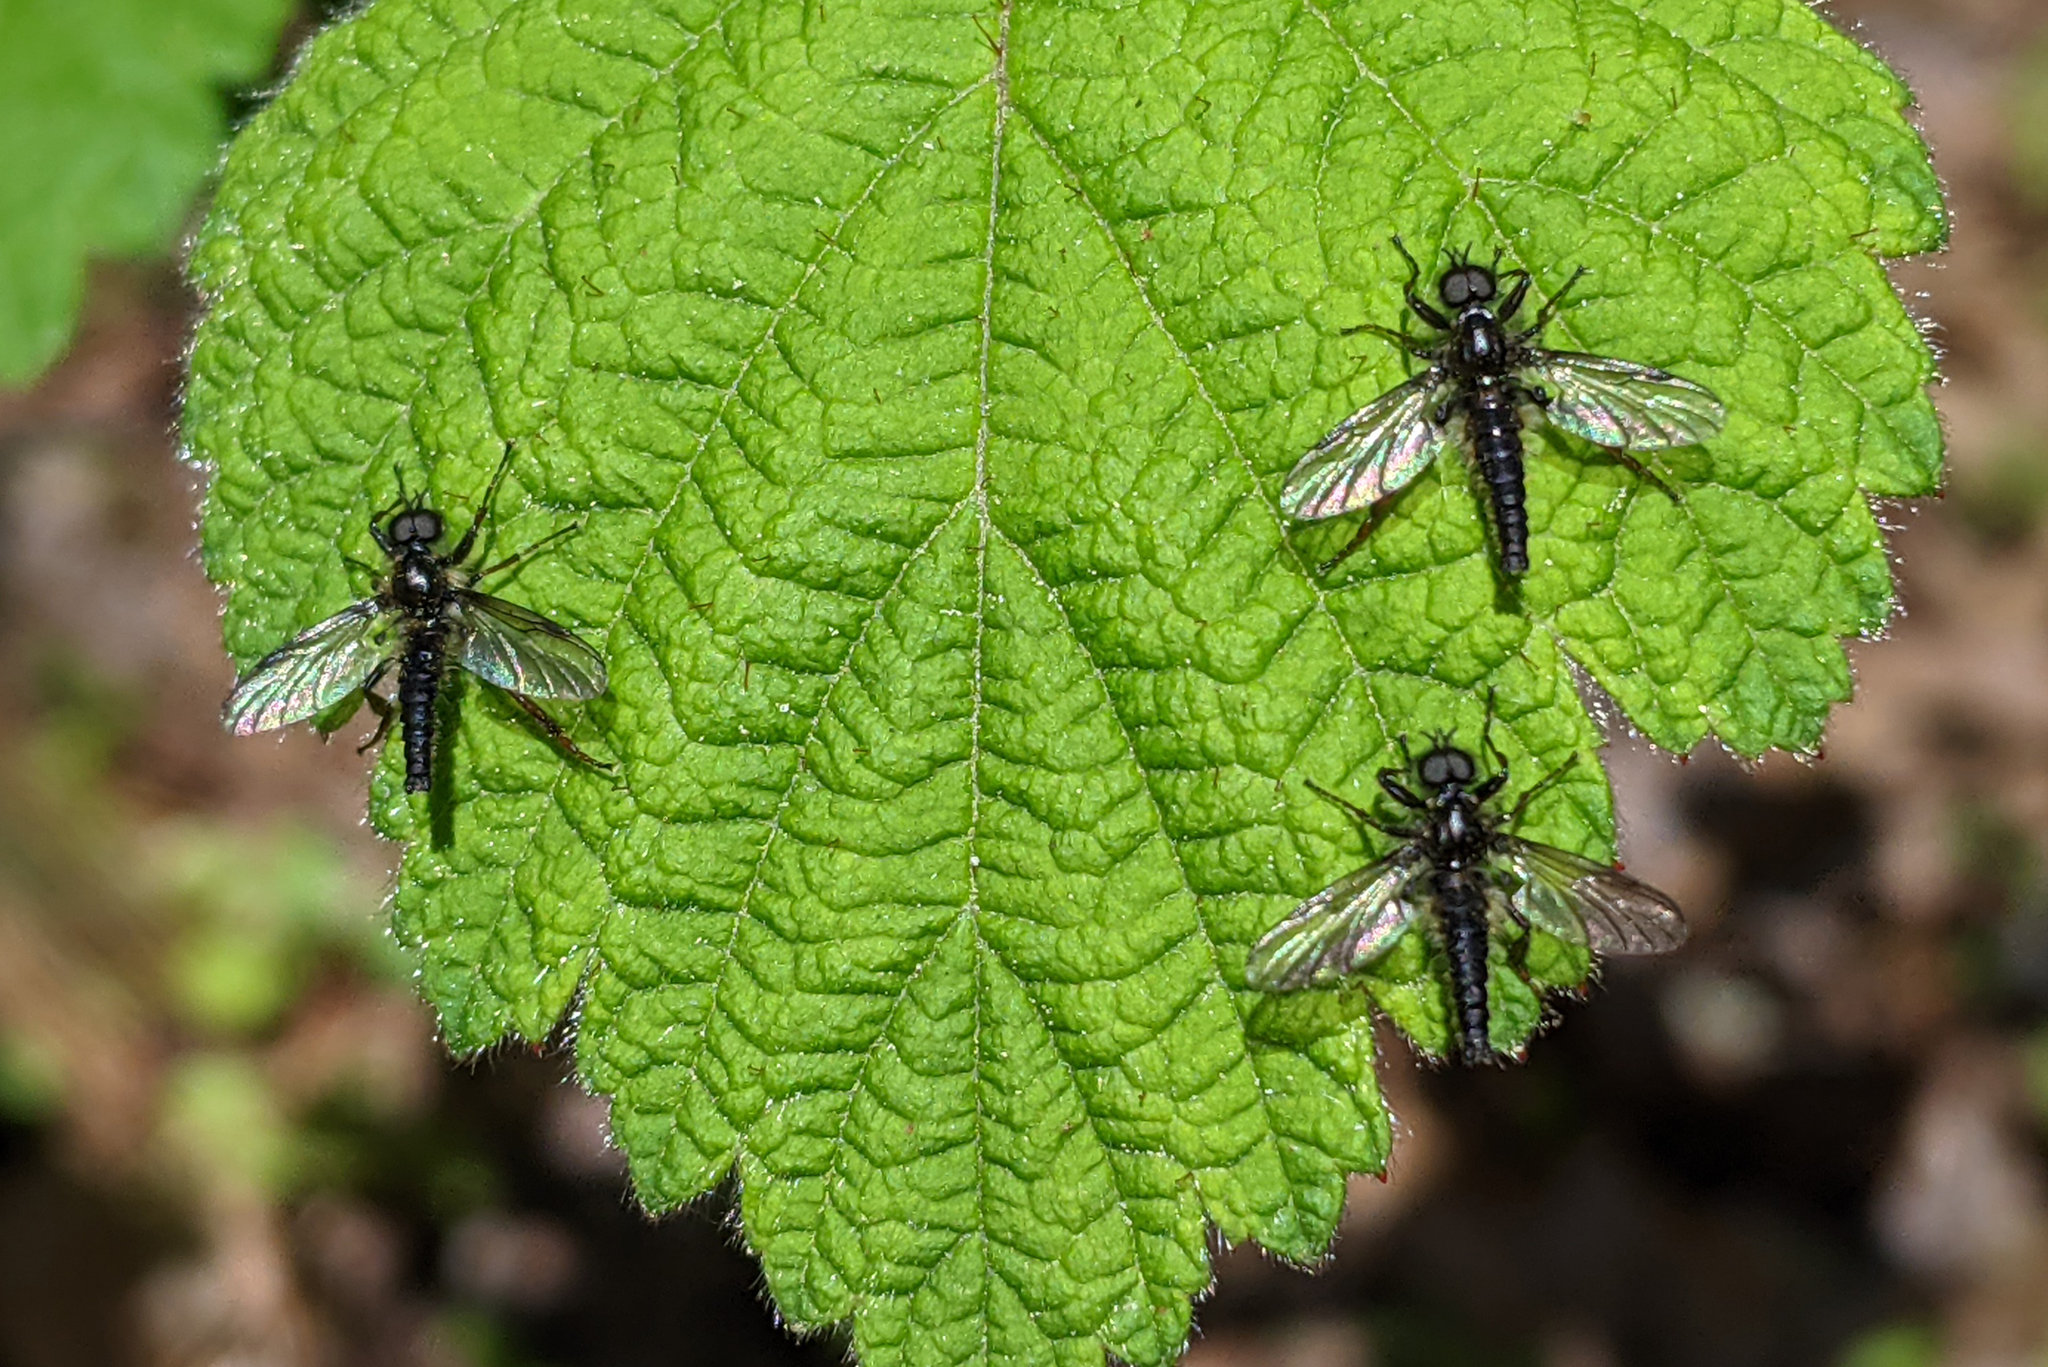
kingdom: Animalia
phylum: Arthropoda
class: Insecta
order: Diptera
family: Bibionidae
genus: Bibio
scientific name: Bibio lanigerus
